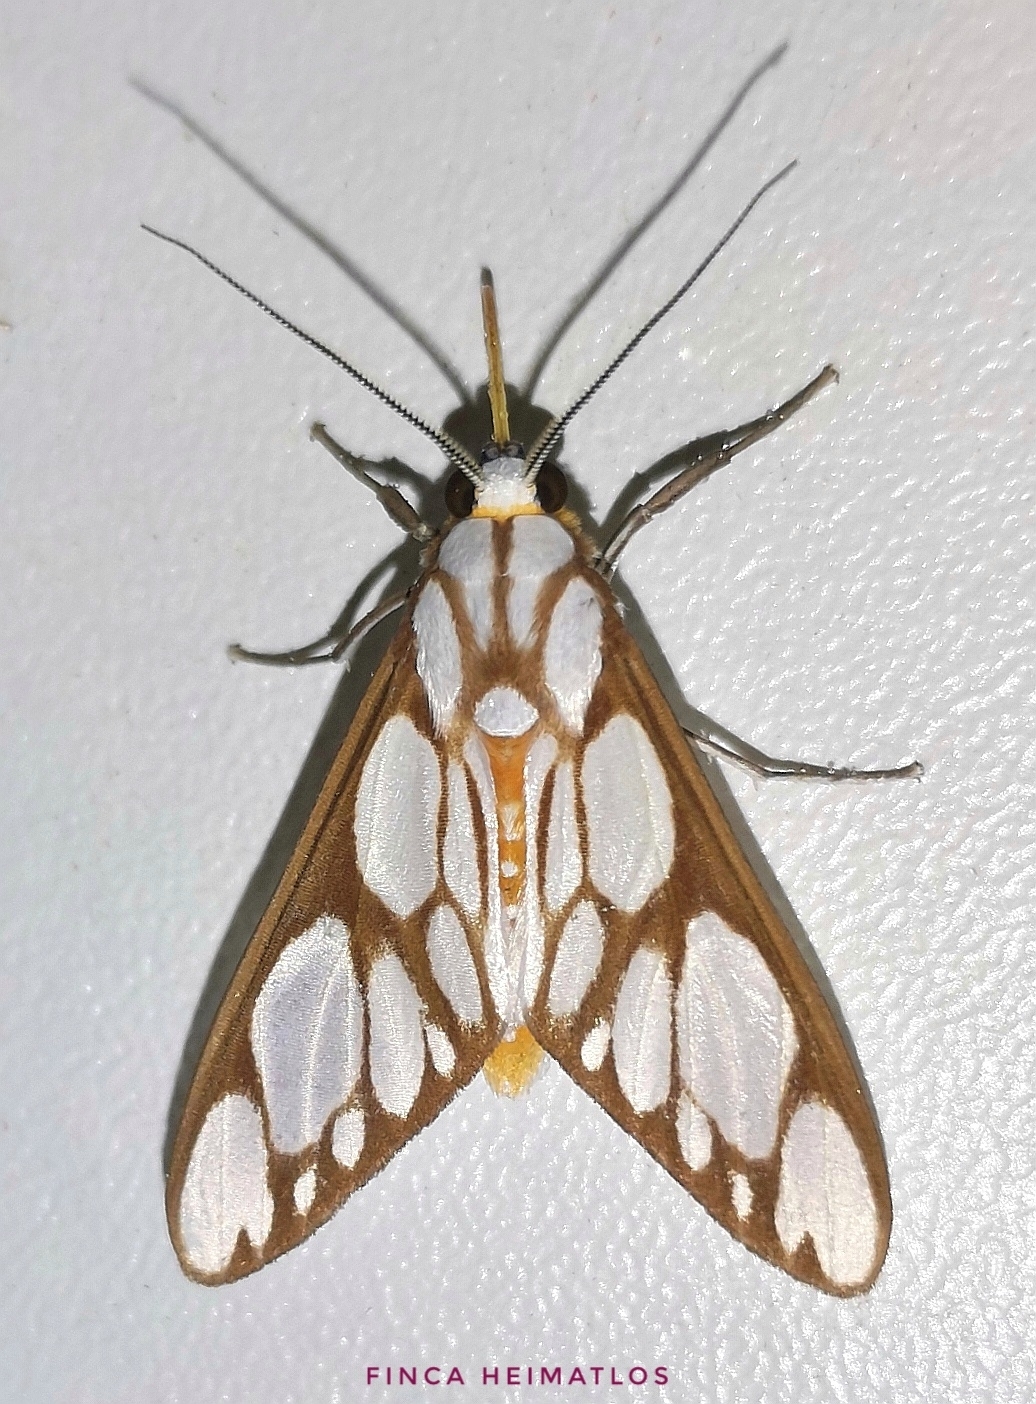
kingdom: Animalia
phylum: Arthropoda
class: Insecta
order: Lepidoptera
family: Erebidae
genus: Robinsonia
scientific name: Robinsonia sanea
